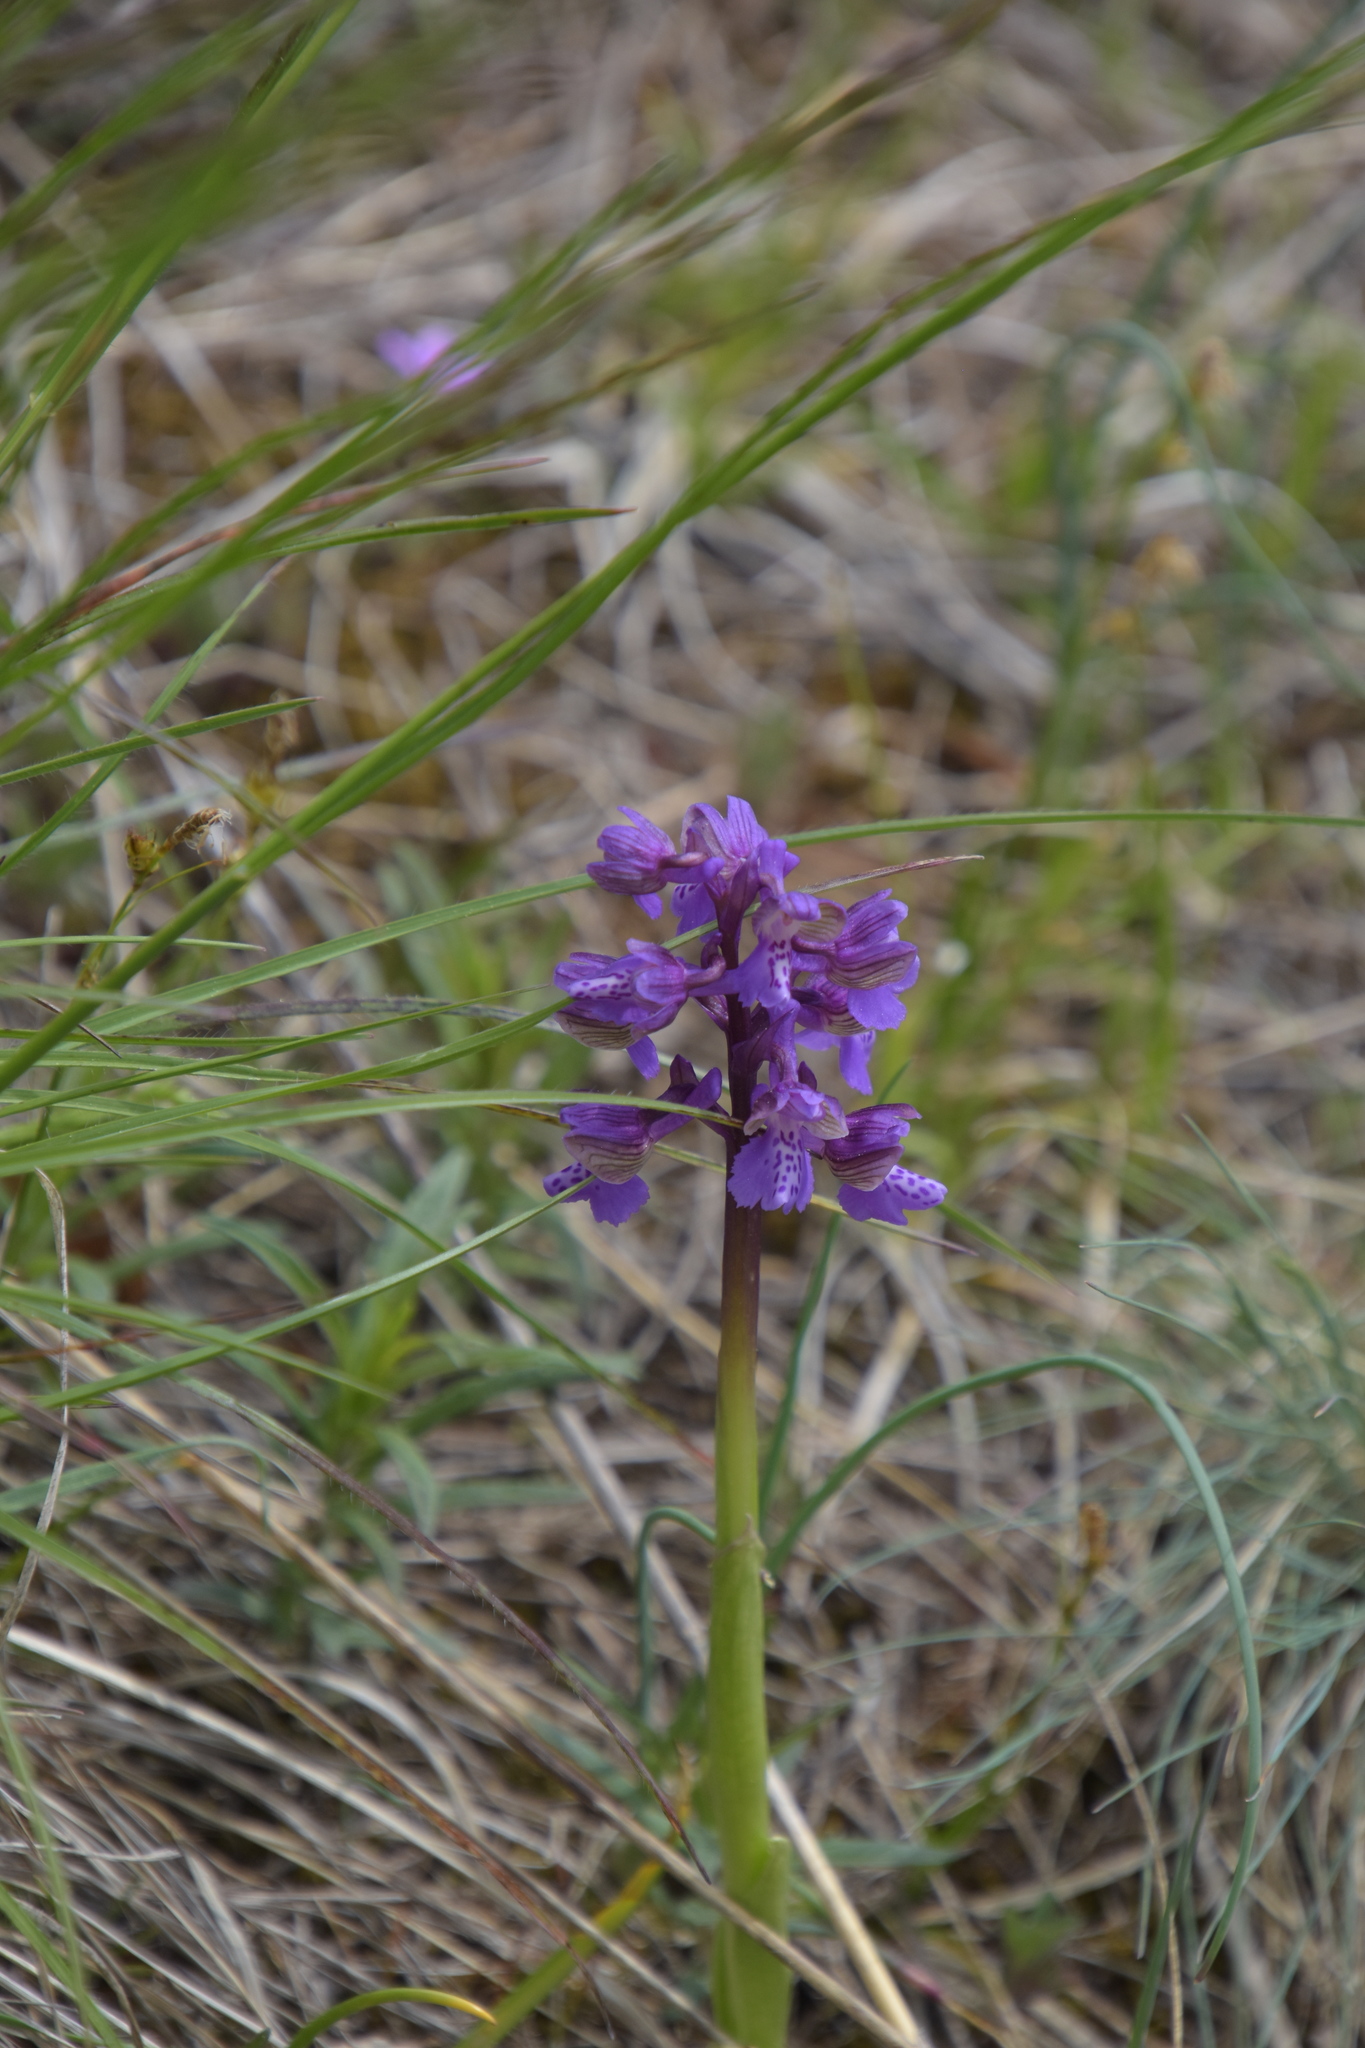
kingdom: Plantae
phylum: Tracheophyta
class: Liliopsida
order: Asparagales
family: Orchidaceae
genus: Anacamptis
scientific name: Anacamptis morio
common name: Green-winged orchid
